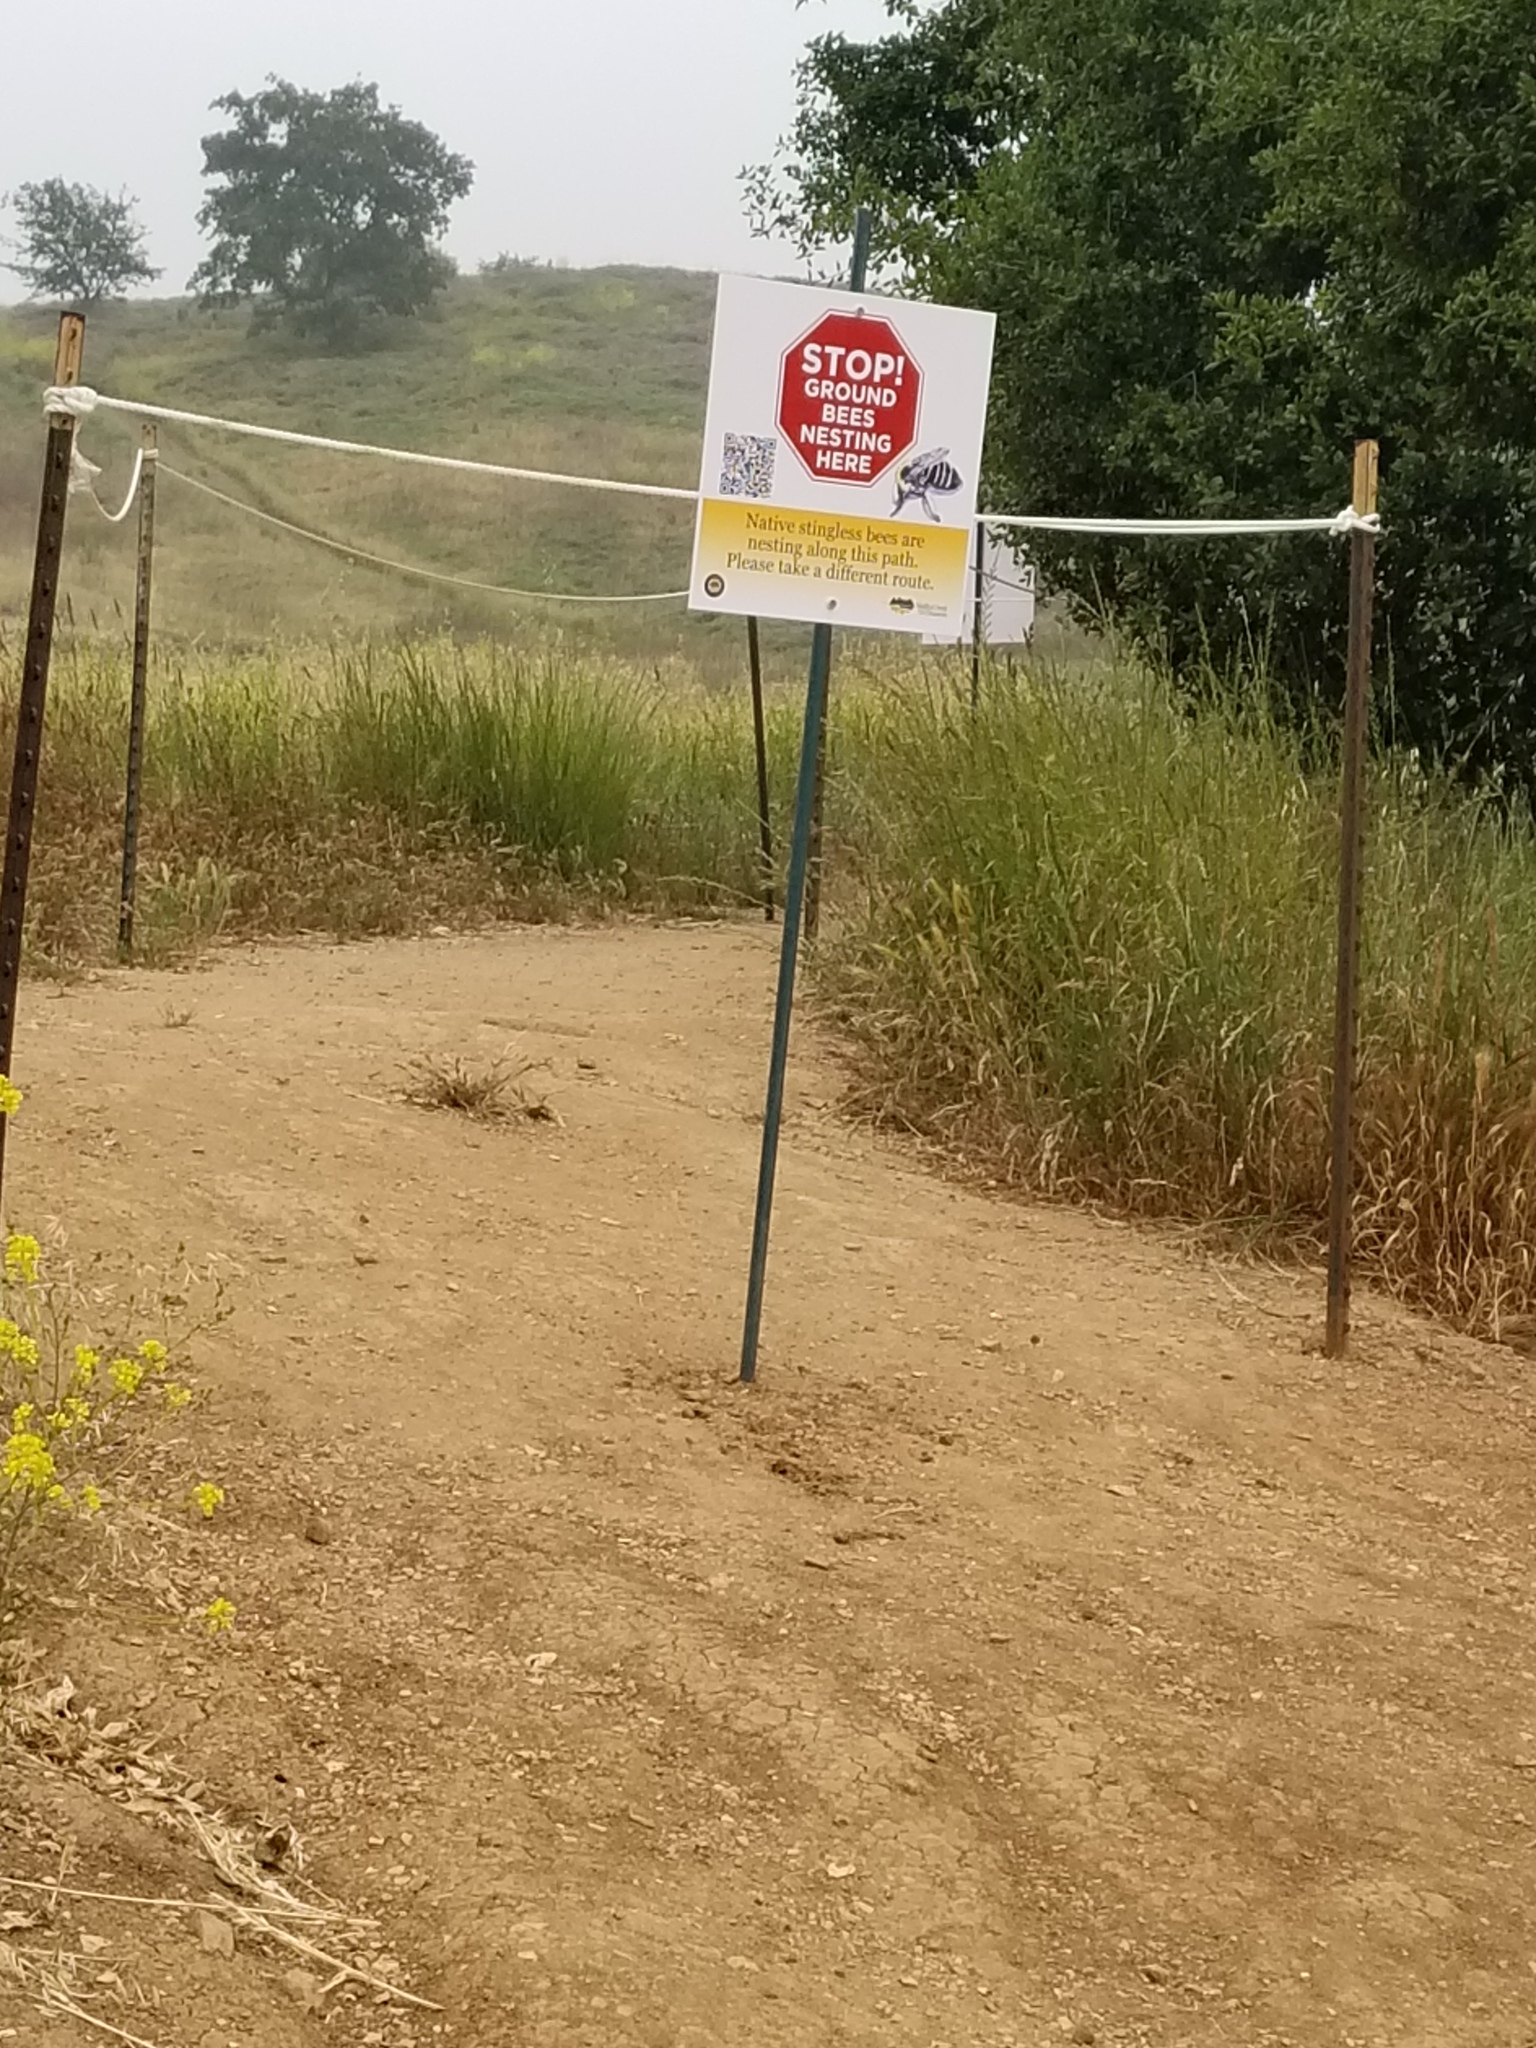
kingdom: Animalia
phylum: Arthropoda
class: Insecta
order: Hymenoptera
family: Apidae
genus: Diadasia
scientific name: Diadasia bituberculata
